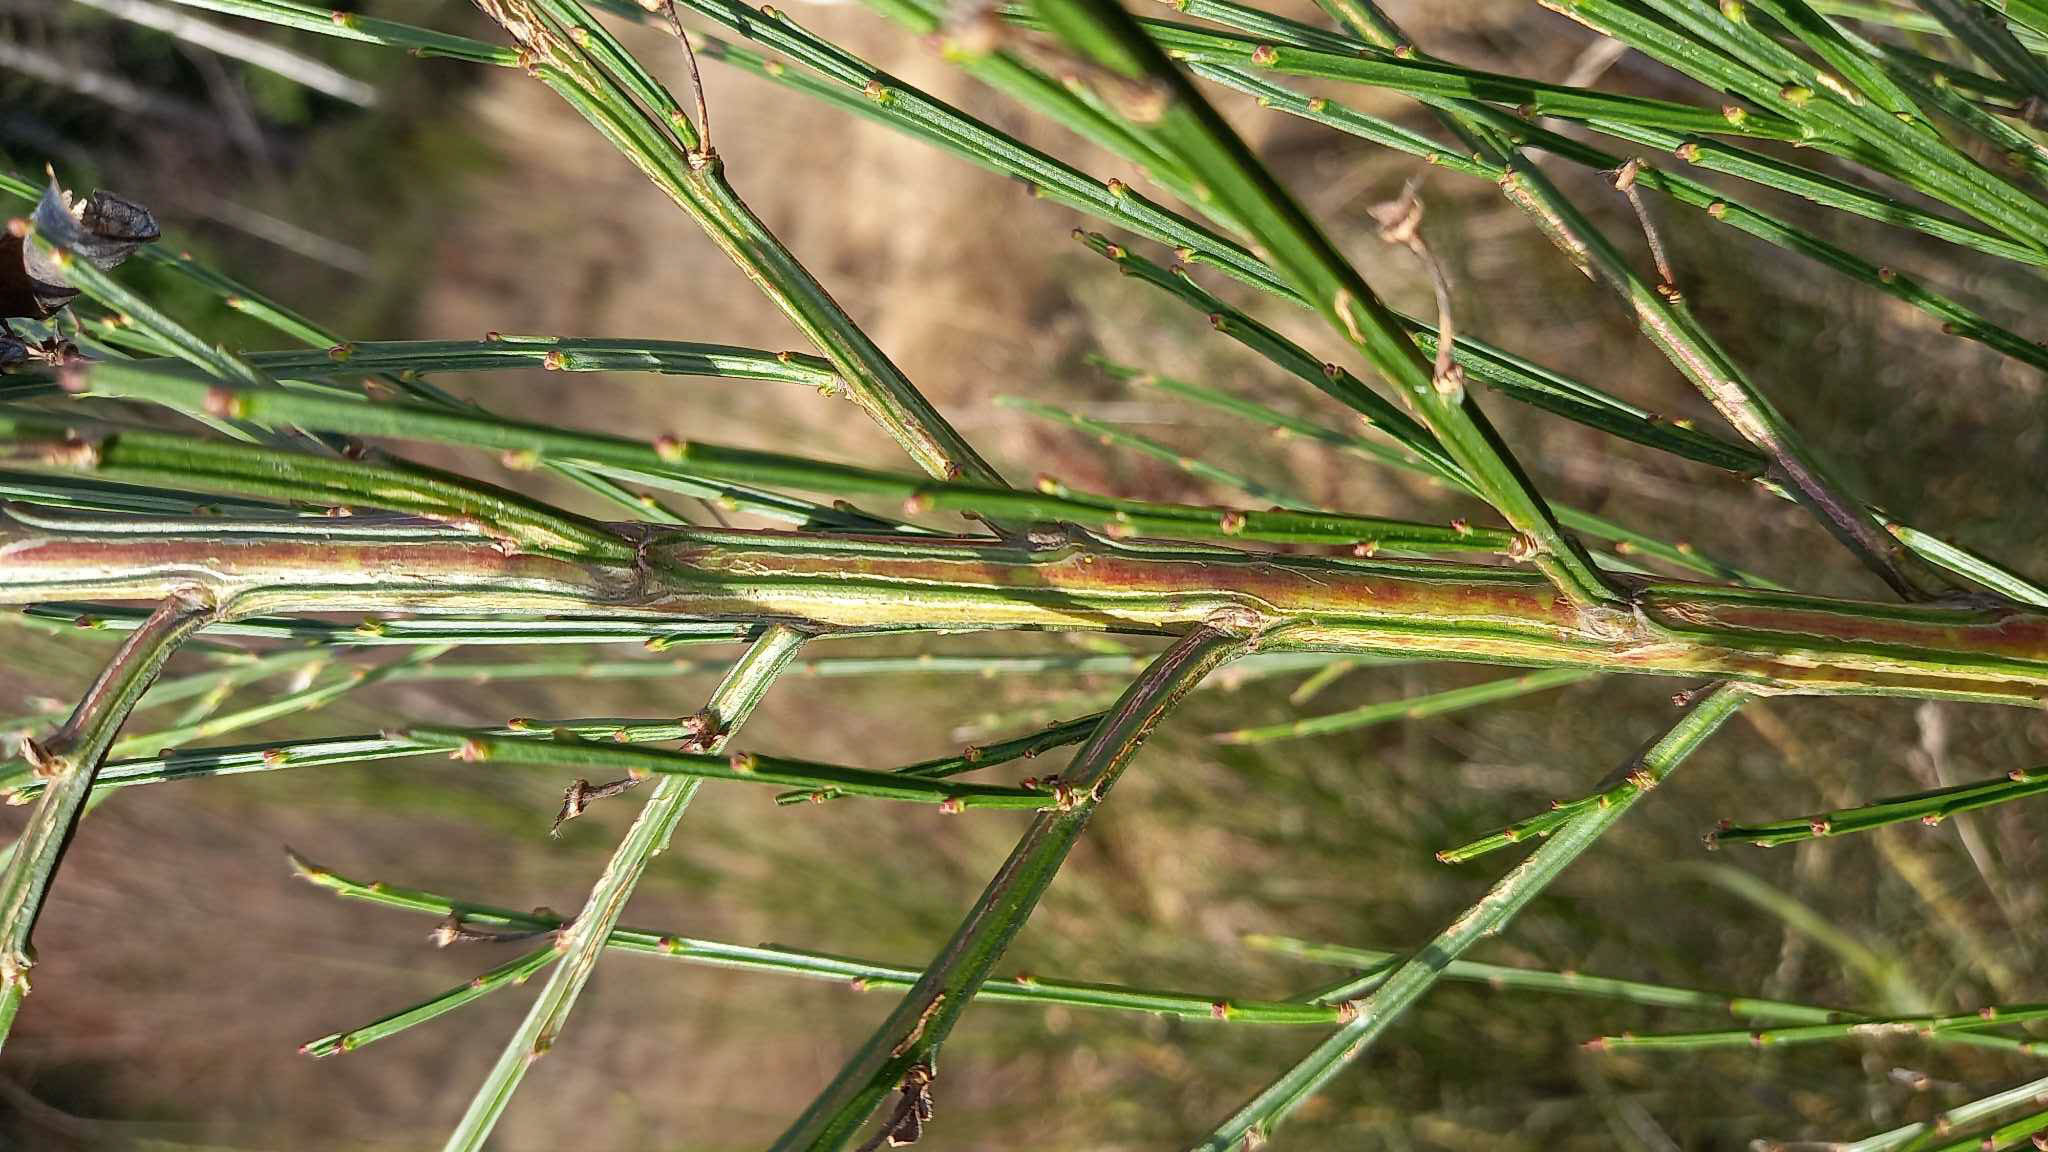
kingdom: Animalia
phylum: Arthropoda
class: Insecta
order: Lepidoptera
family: Lyonetiidae
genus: Leucoptera
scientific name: Leucoptera spartifoliella
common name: Scotch broom twig miner
